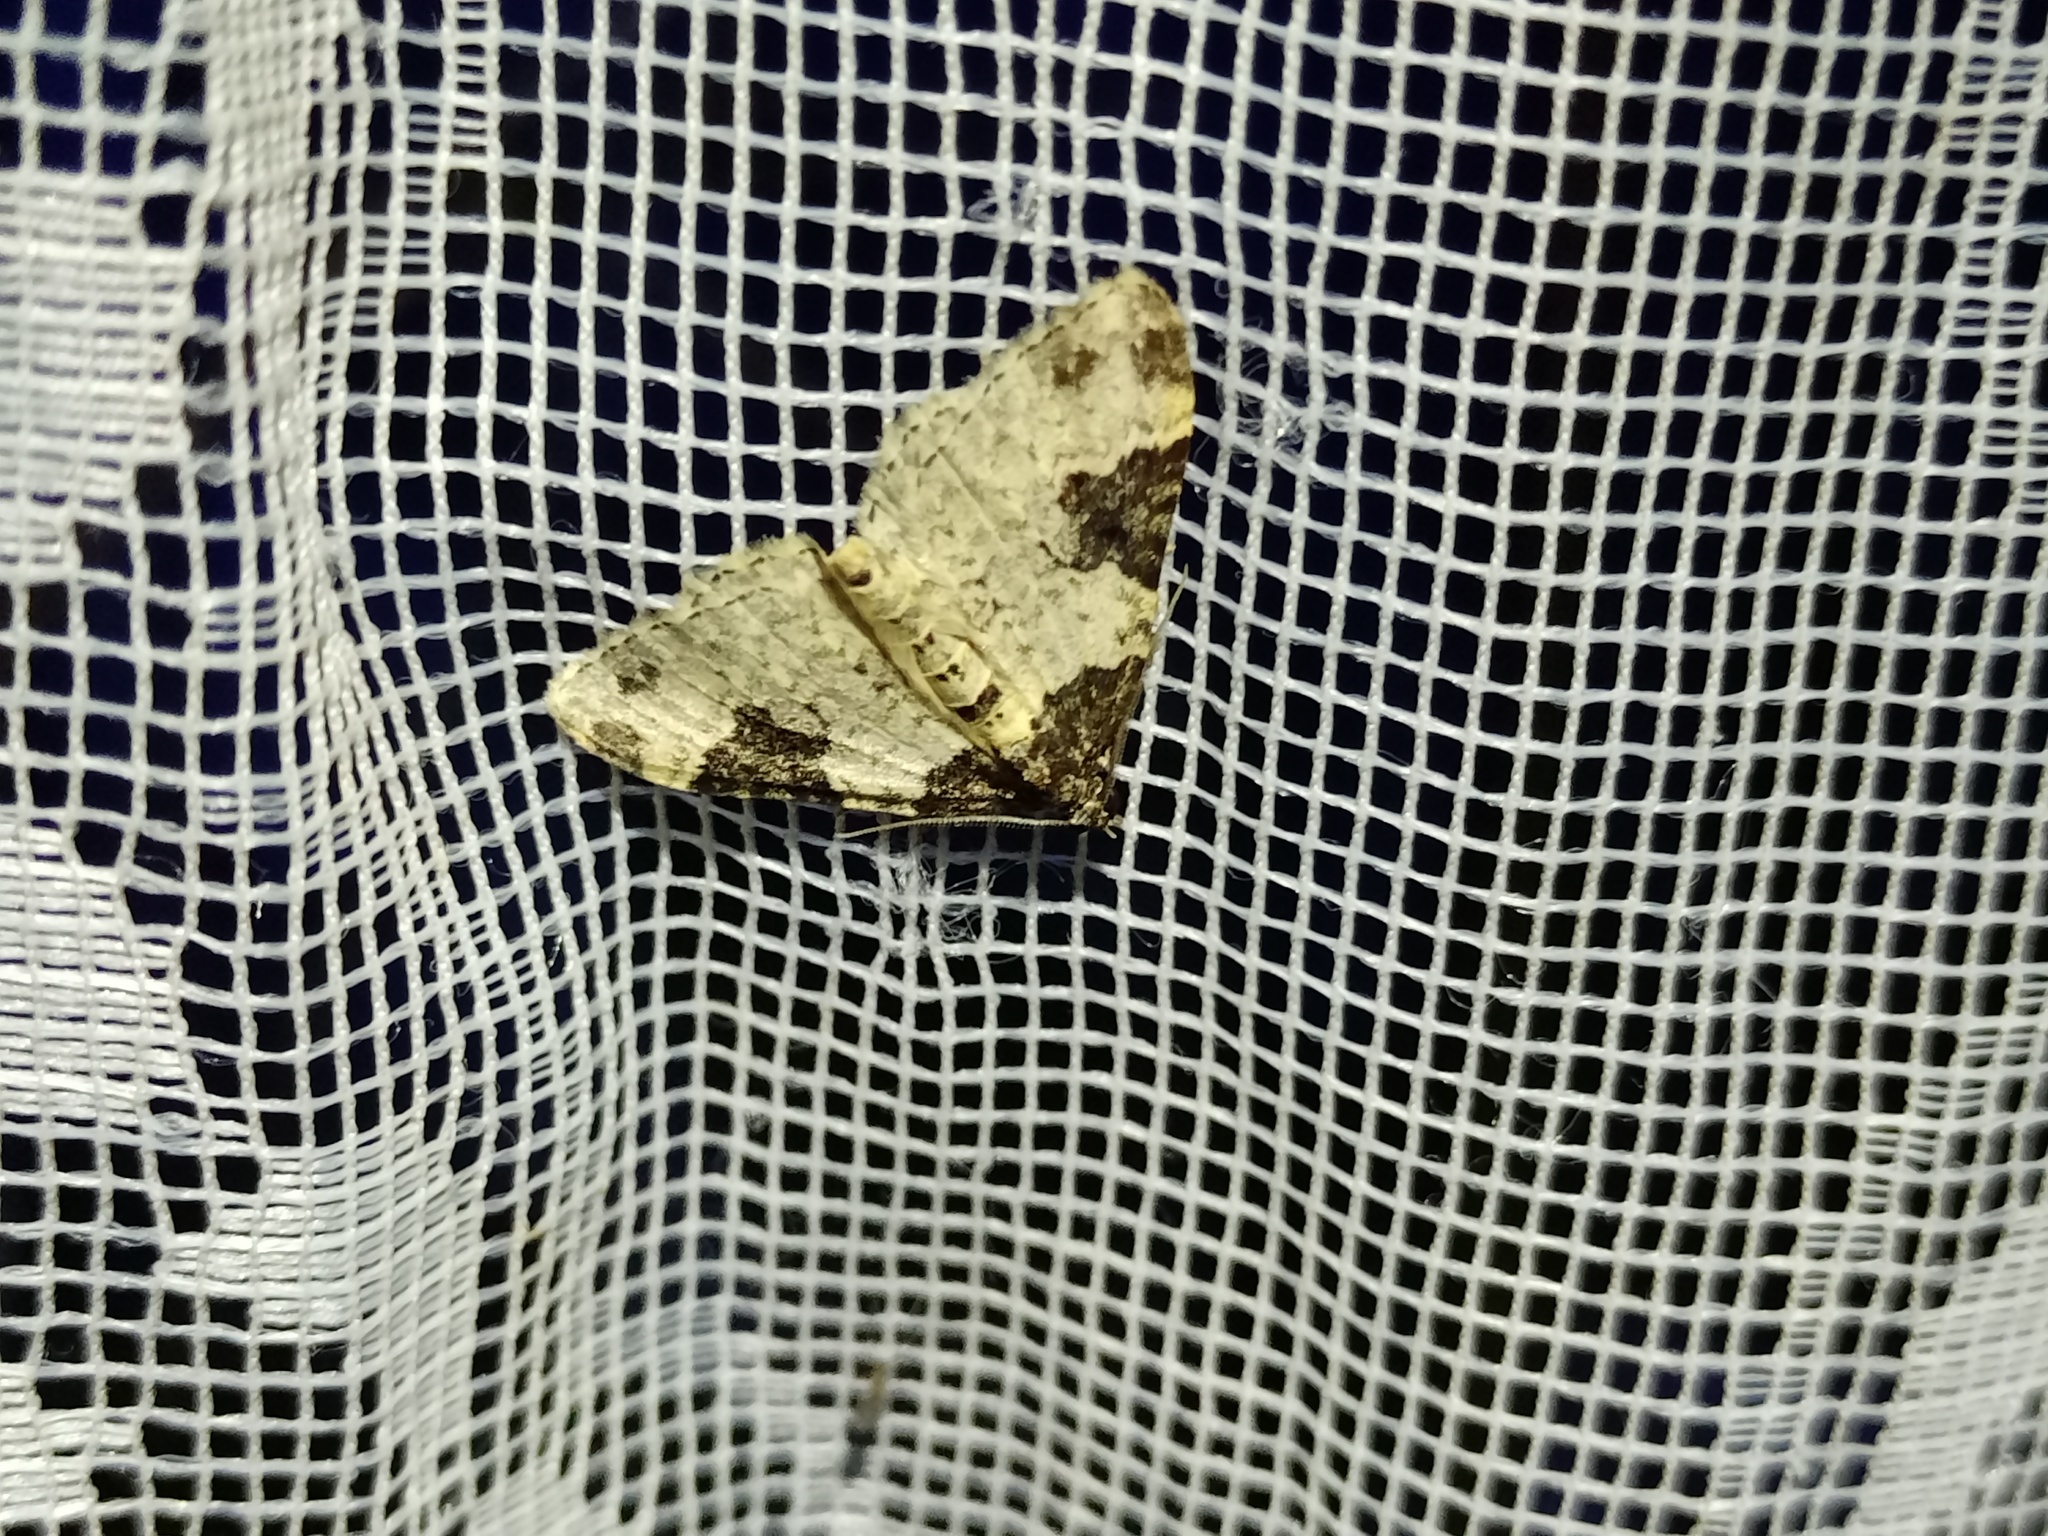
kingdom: Animalia
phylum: Arthropoda
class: Insecta
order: Lepidoptera
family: Geometridae
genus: Xanthorhoe
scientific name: Xanthorhoe fluctuata
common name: Garden carpet
